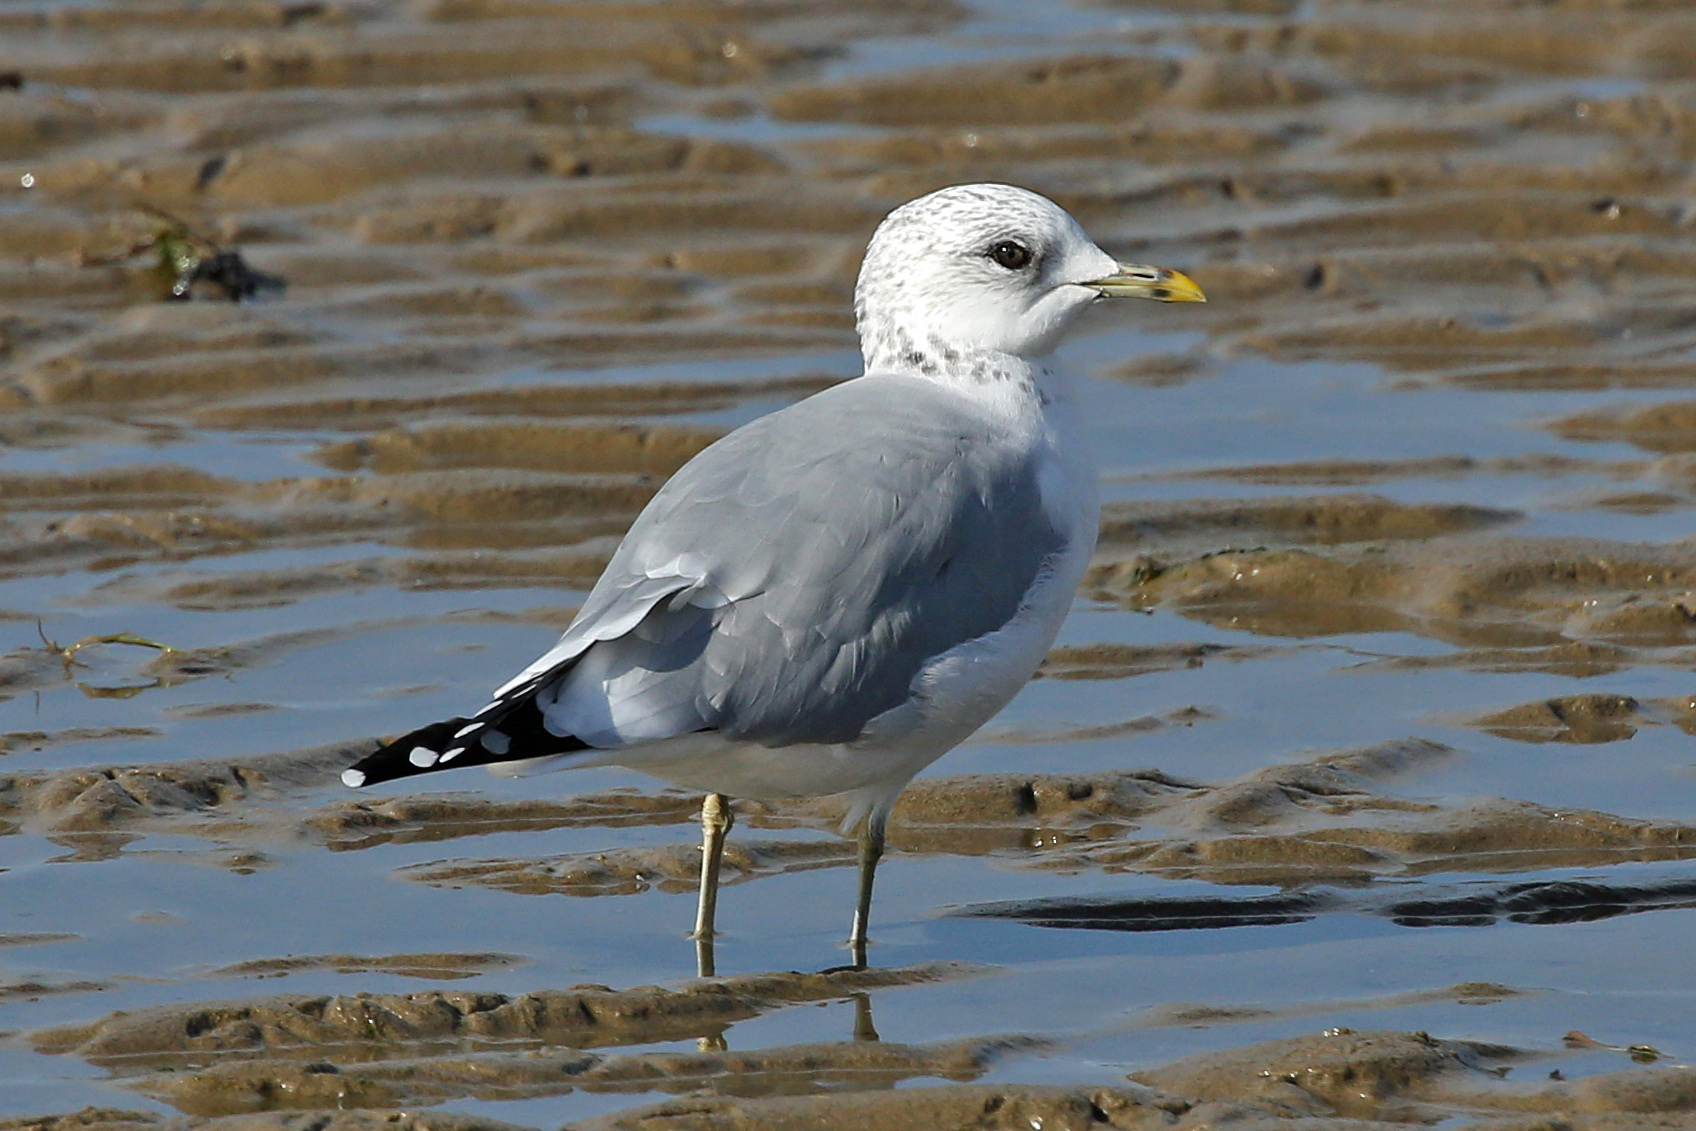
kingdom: Animalia
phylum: Chordata
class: Aves
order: Charadriiformes
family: Laridae
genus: Larus
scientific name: Larus canus
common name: Mew gull
